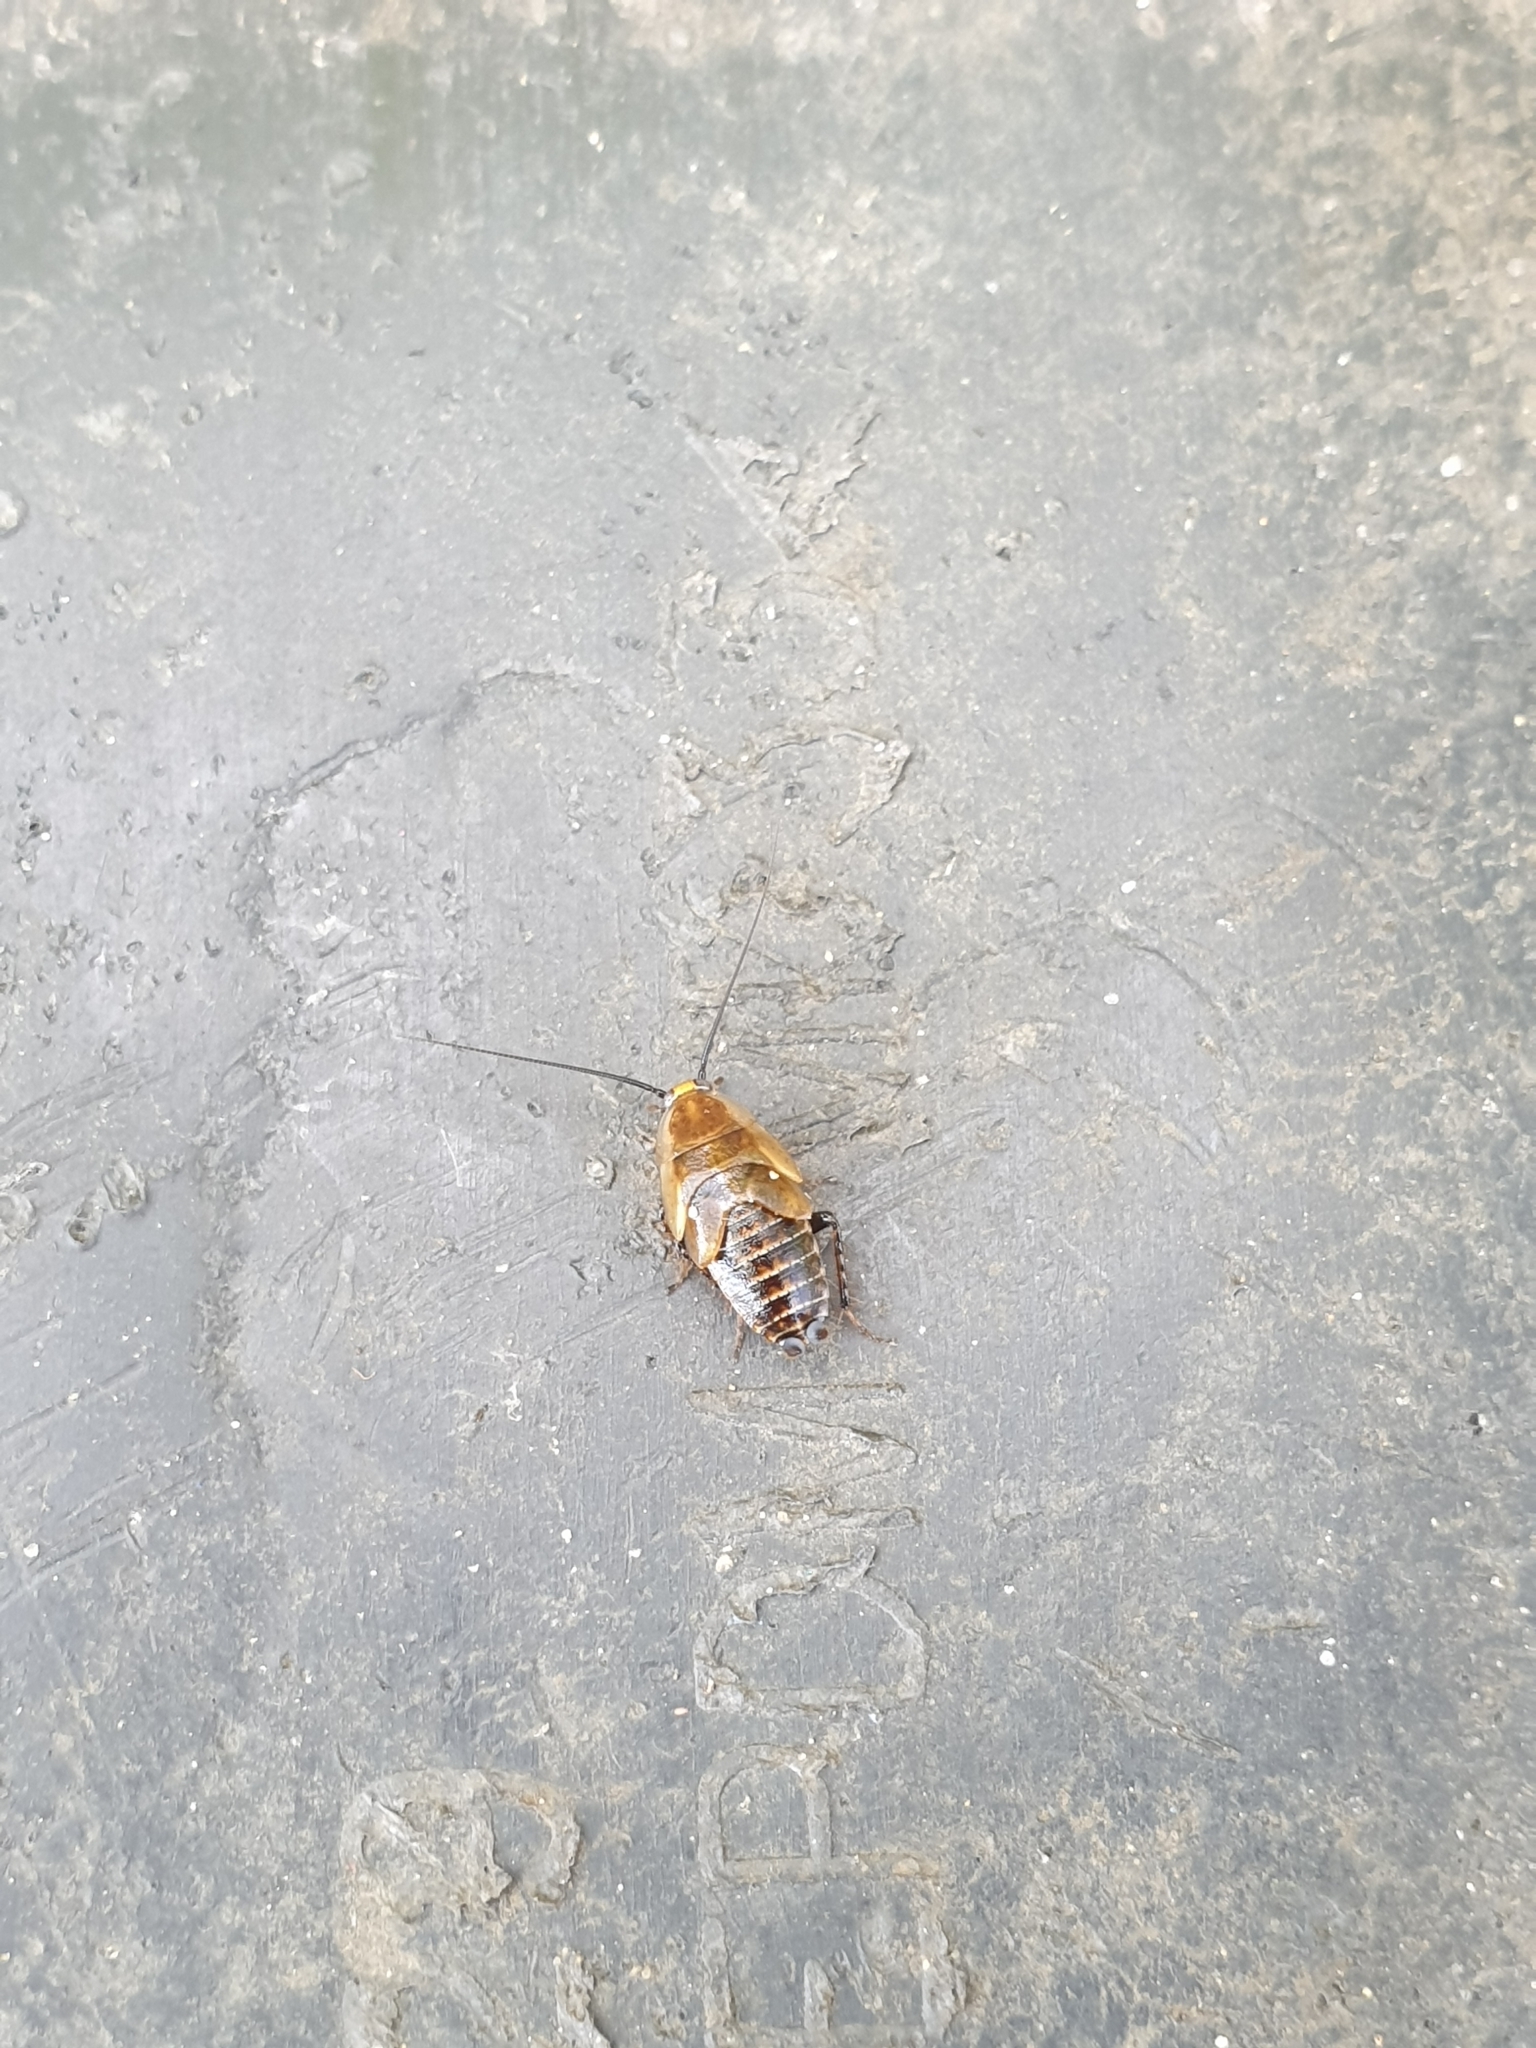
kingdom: Animalia
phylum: Arthropoda
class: Insecta
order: Blattodea
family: Ectobiidae
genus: Ectobius
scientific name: Ectobius sylvestris
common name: Forest cockroach
